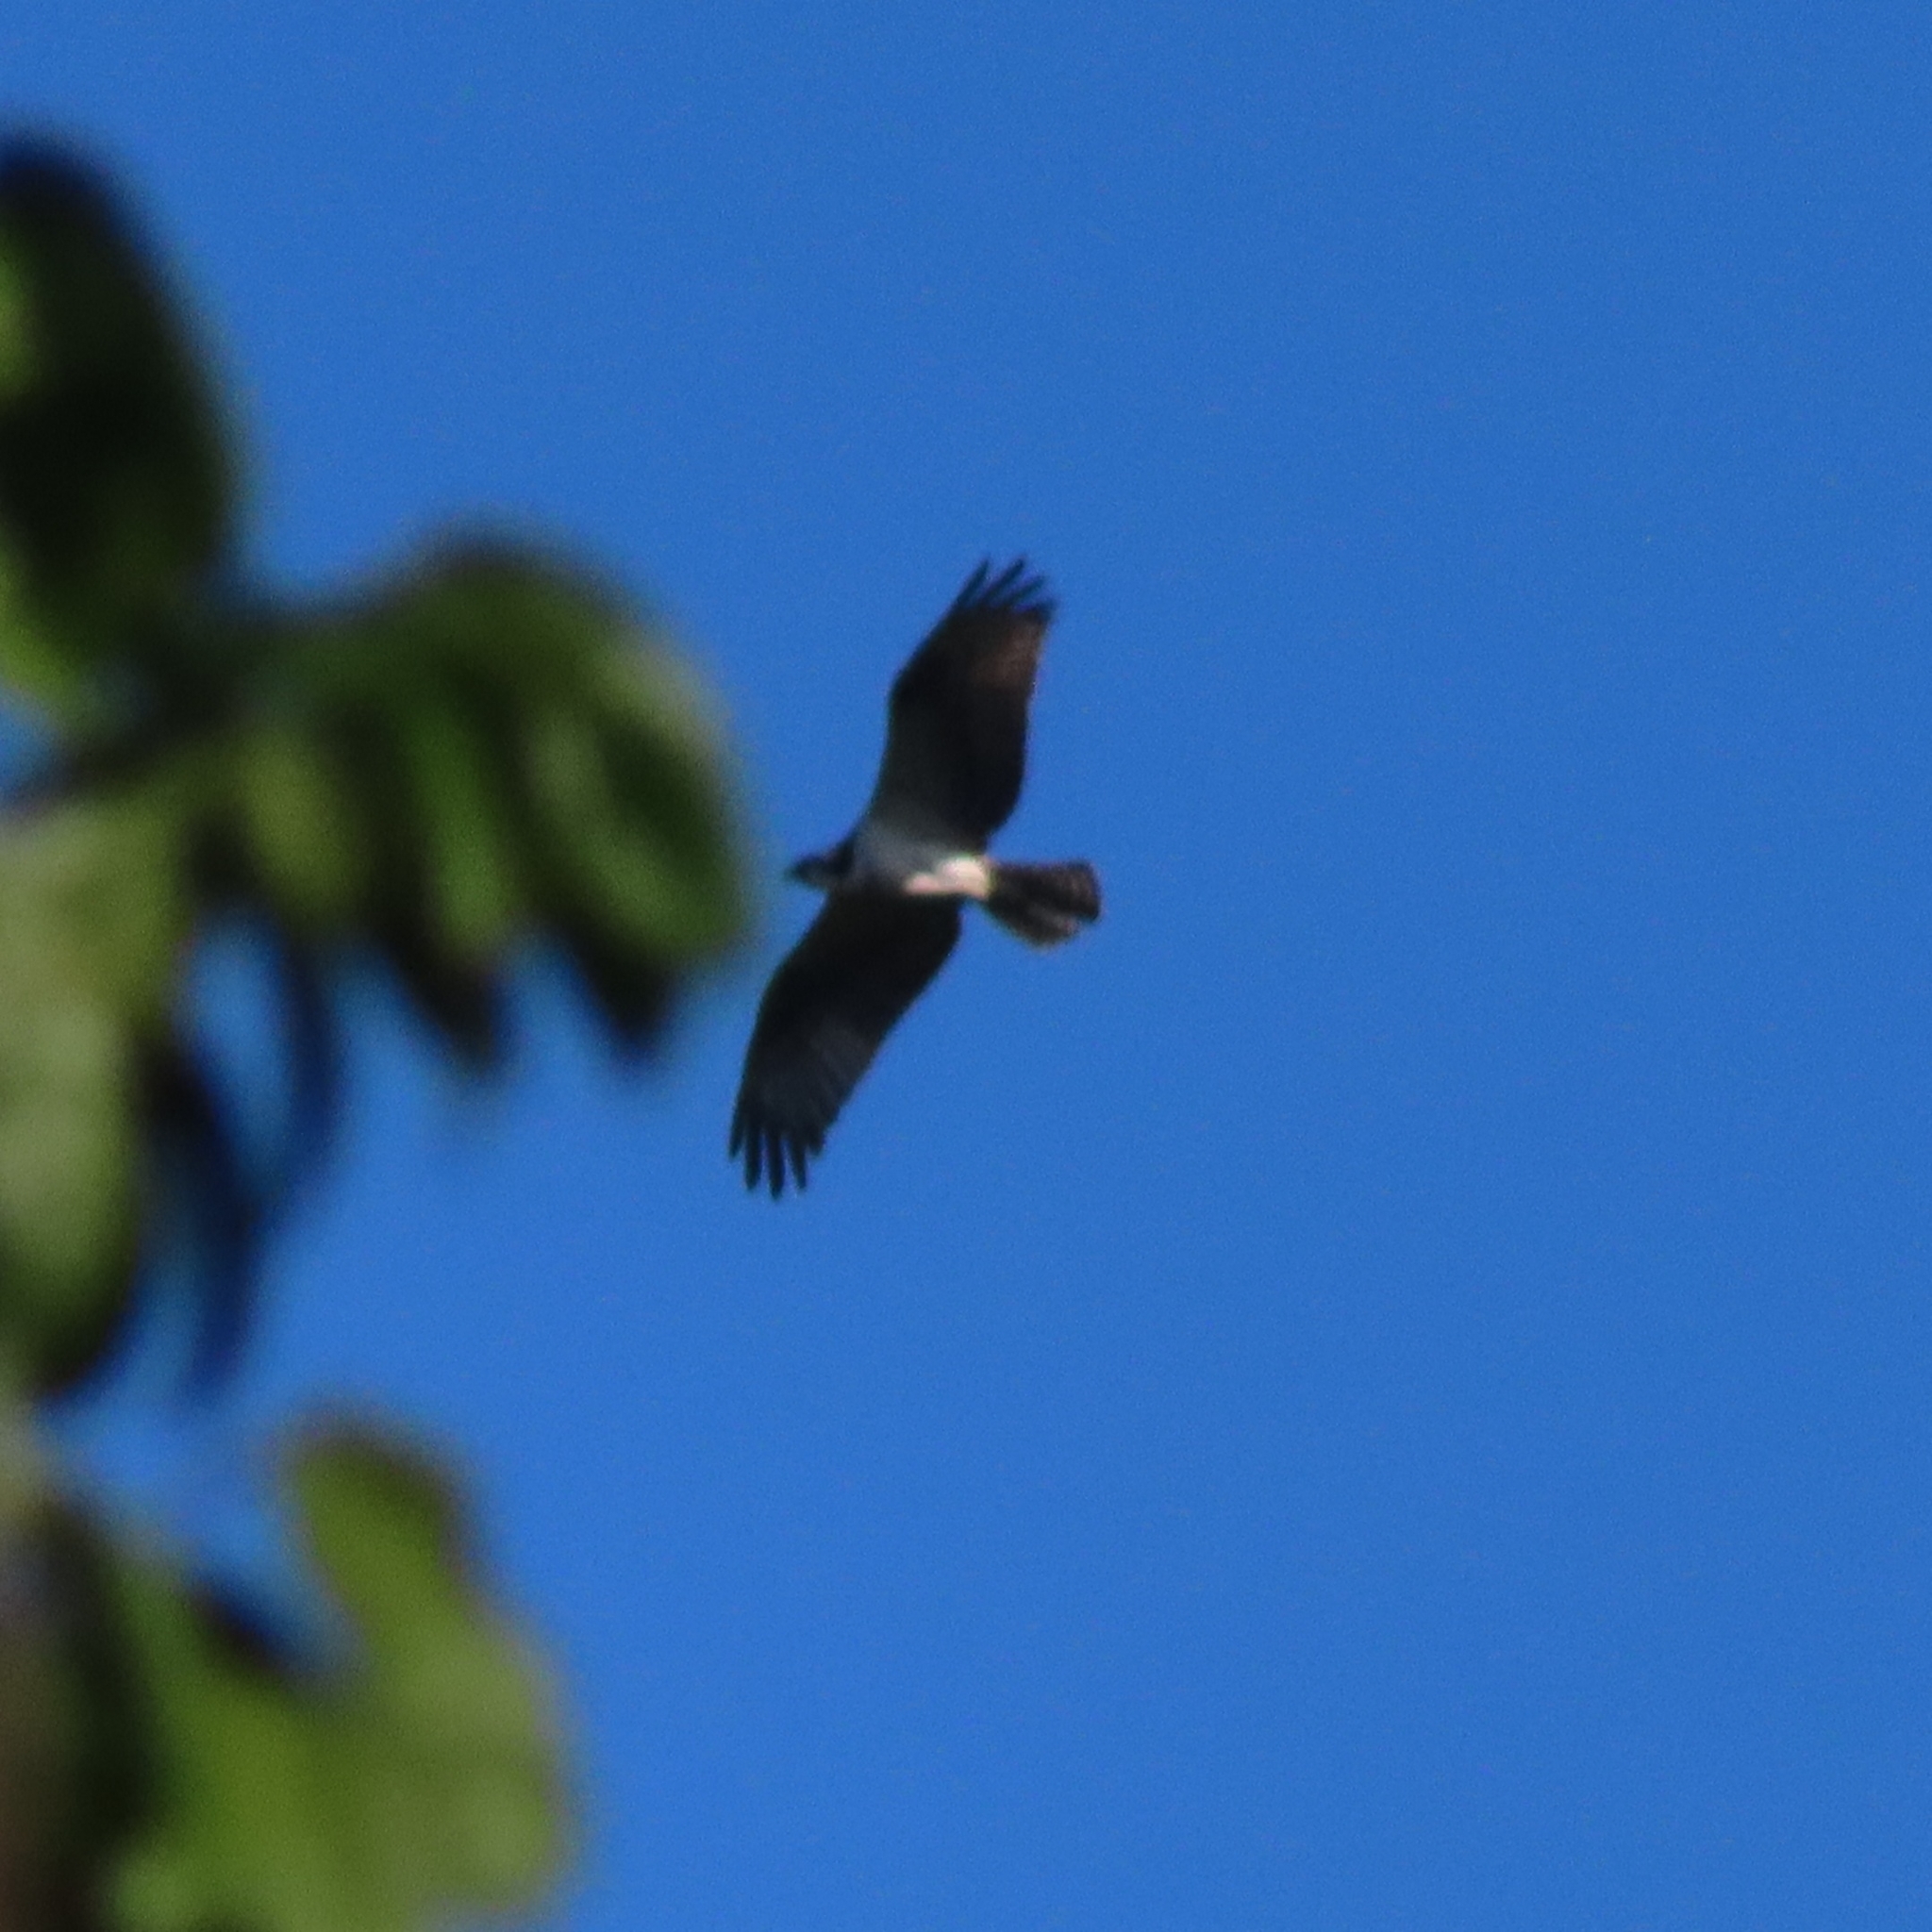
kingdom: Animalia
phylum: Chordata
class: Aves
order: Accipitriformes
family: Pandionidae
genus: Pandion
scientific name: Pandion haliaetus
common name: Osprey
